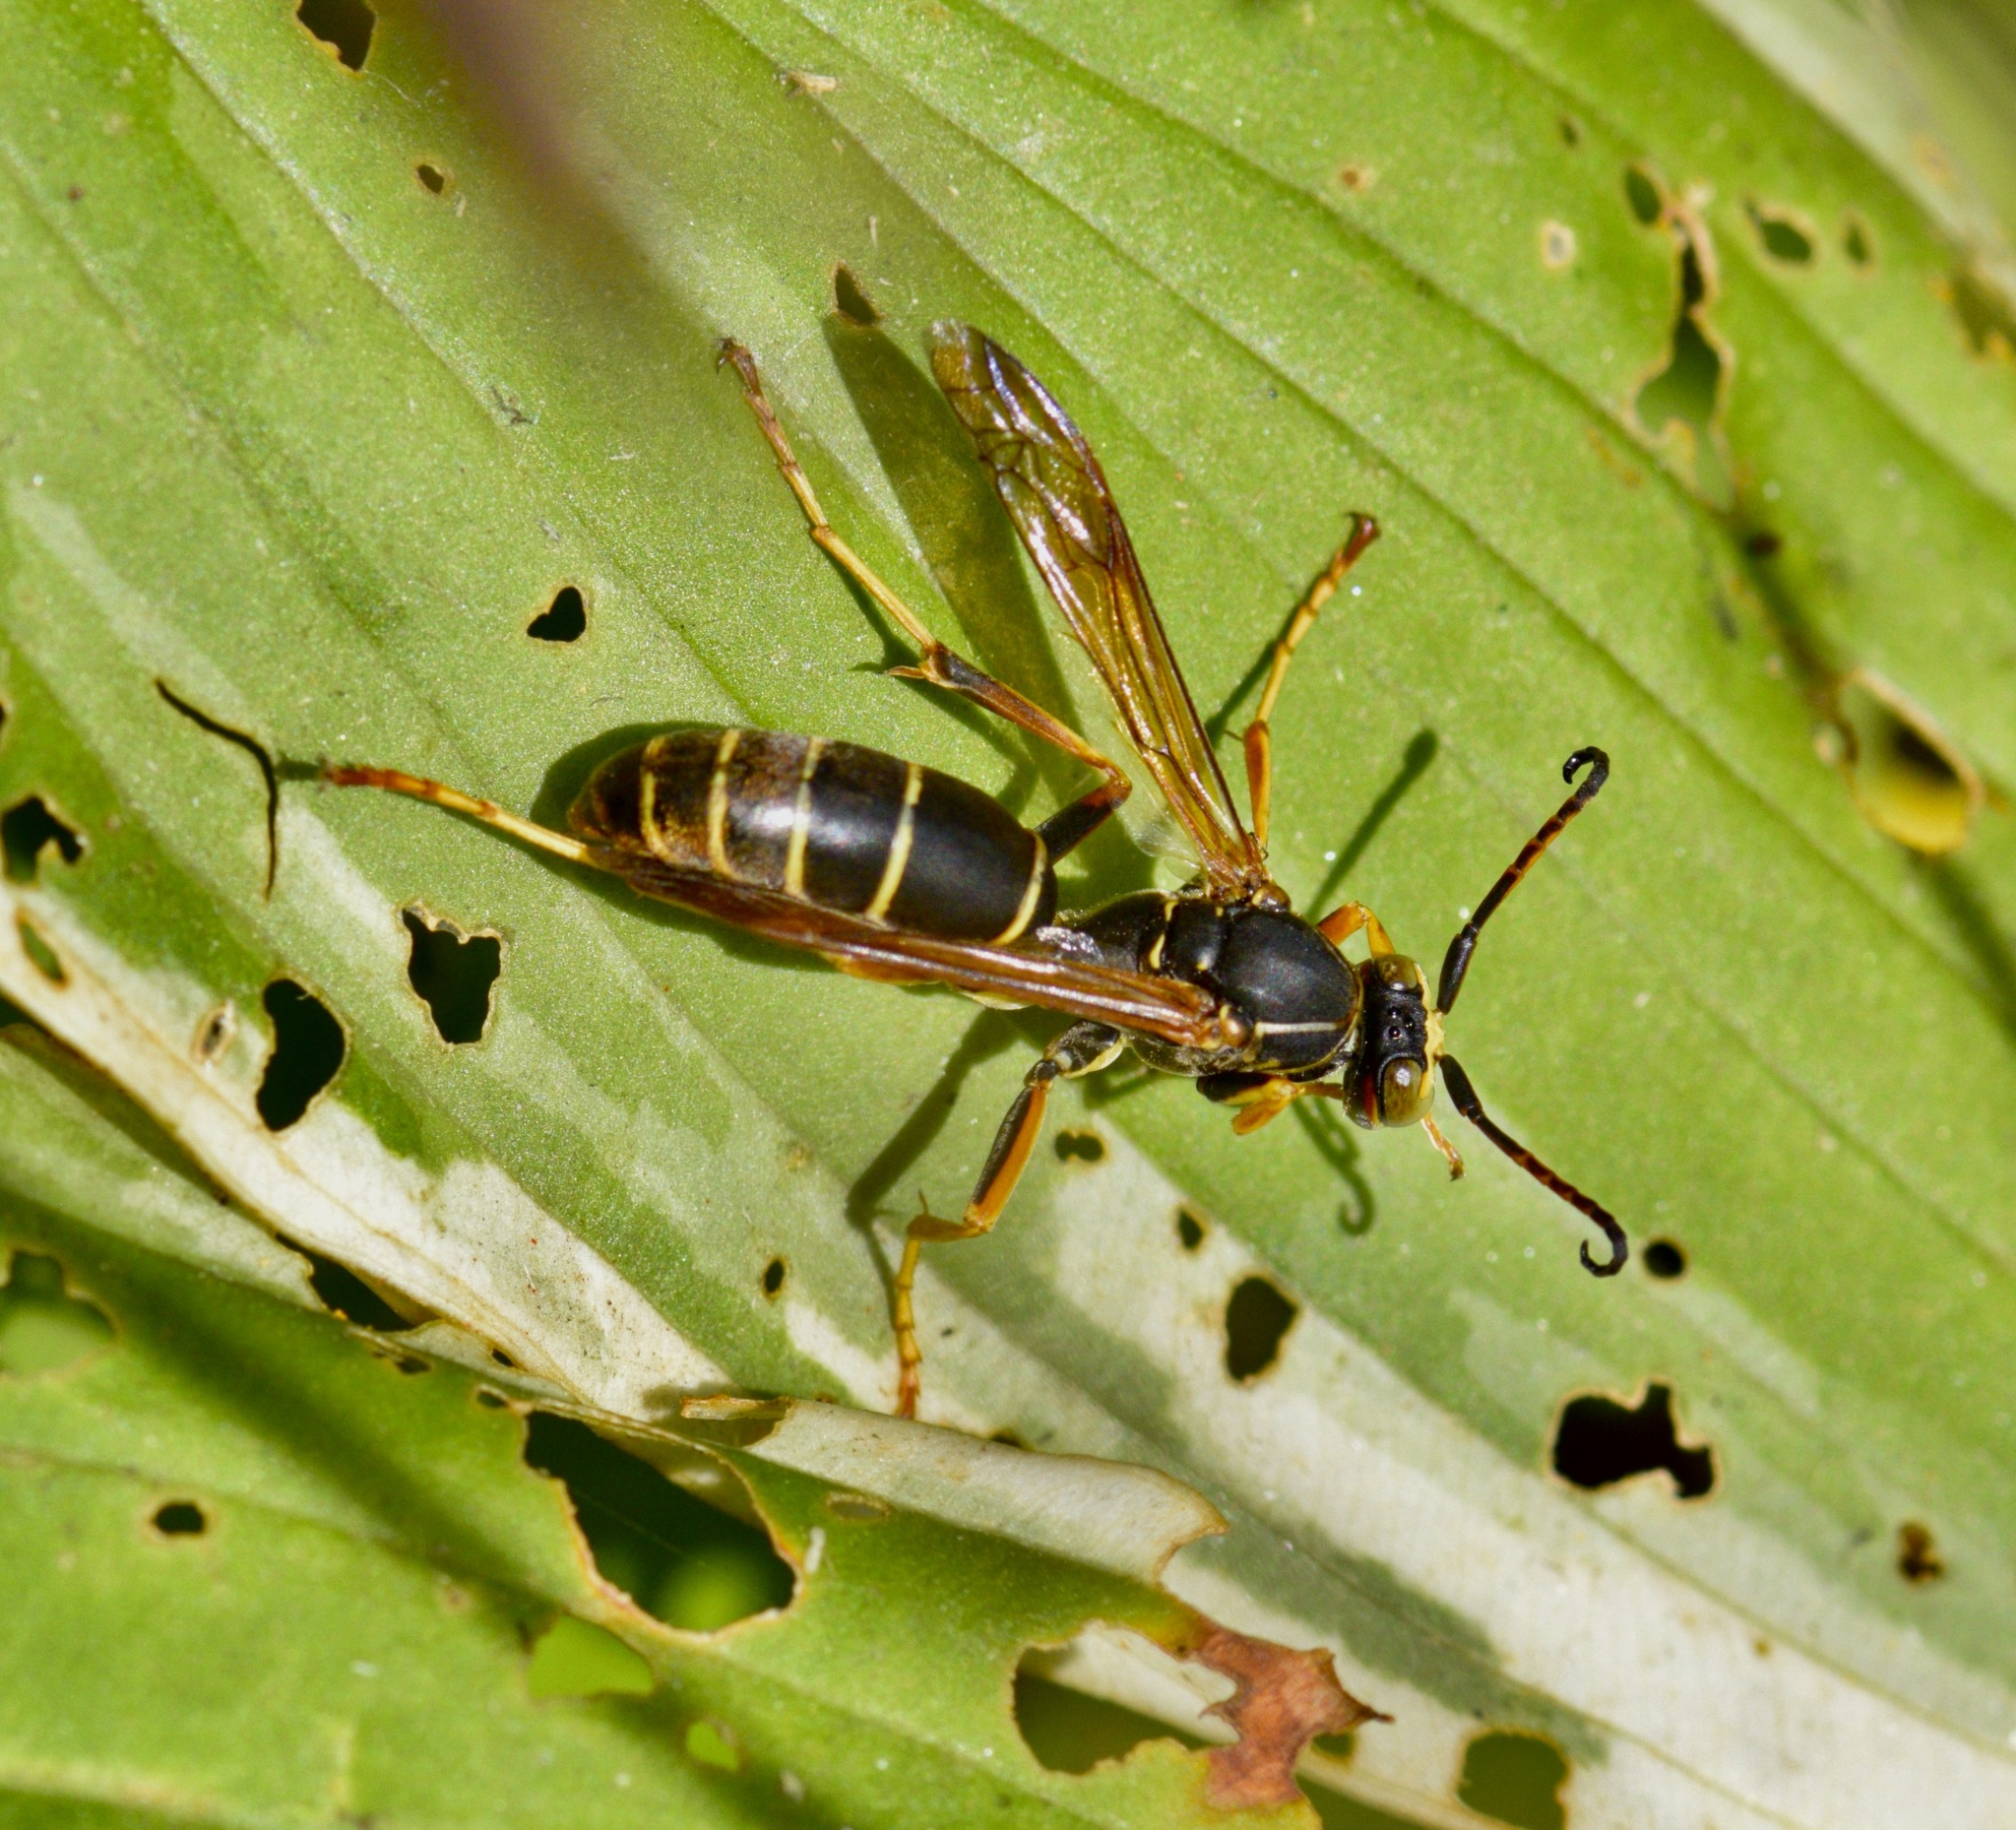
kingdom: Animalia
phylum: Arthropoda
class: Insecta
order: Hymenoptera
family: Eumenidae
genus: Polistes
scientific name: Polistes fuscatus
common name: Dark paper wasp
